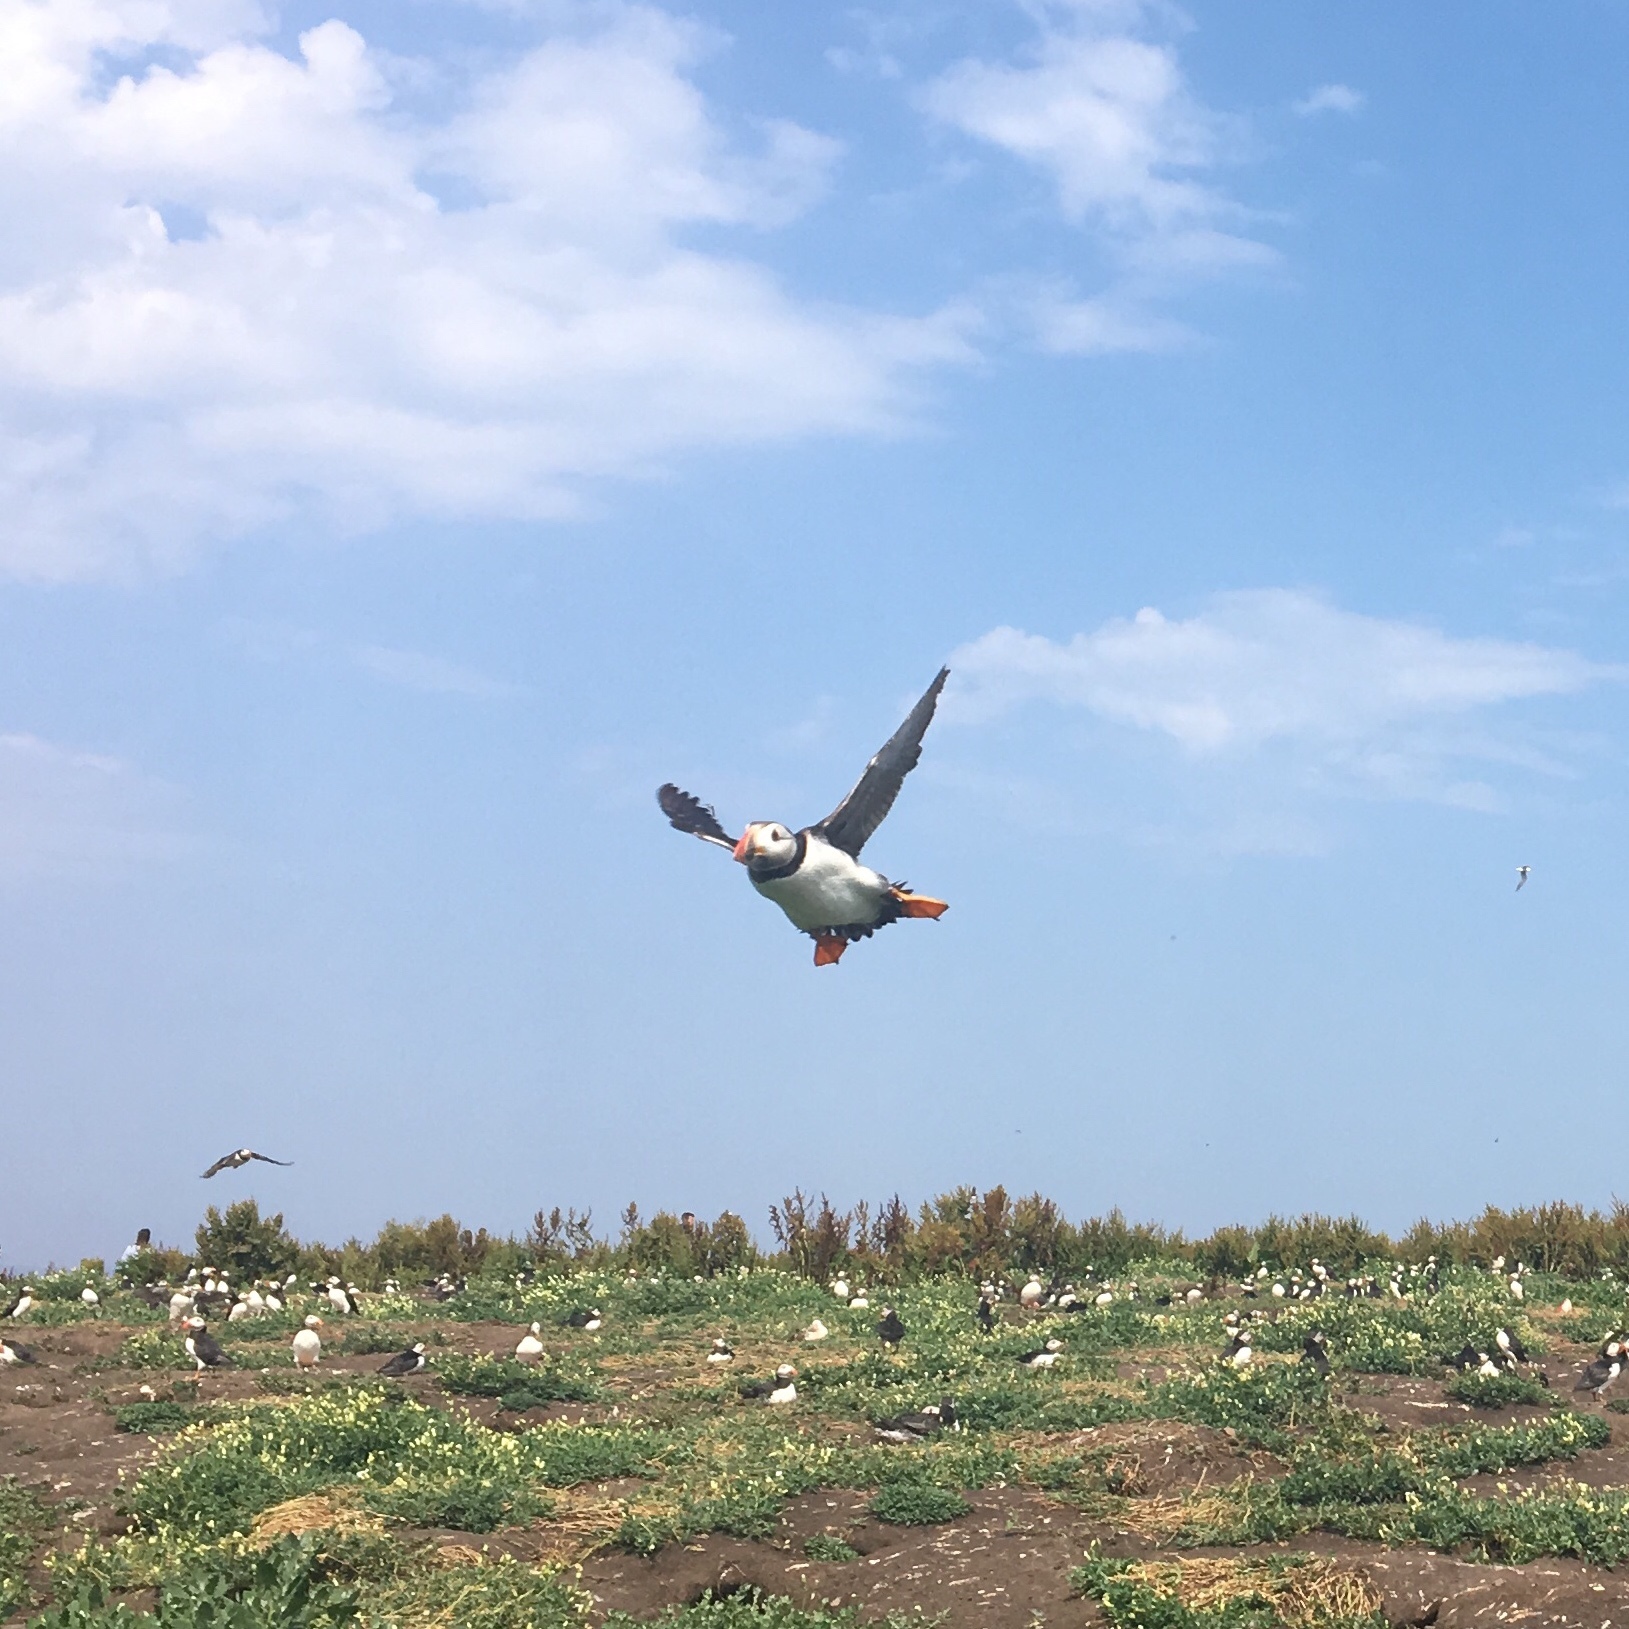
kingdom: Animalia
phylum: Chordata
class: Aves
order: Charadriiformes
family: Alcidae
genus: Fratercula
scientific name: Fratercula arctica
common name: Atlantic puffin
